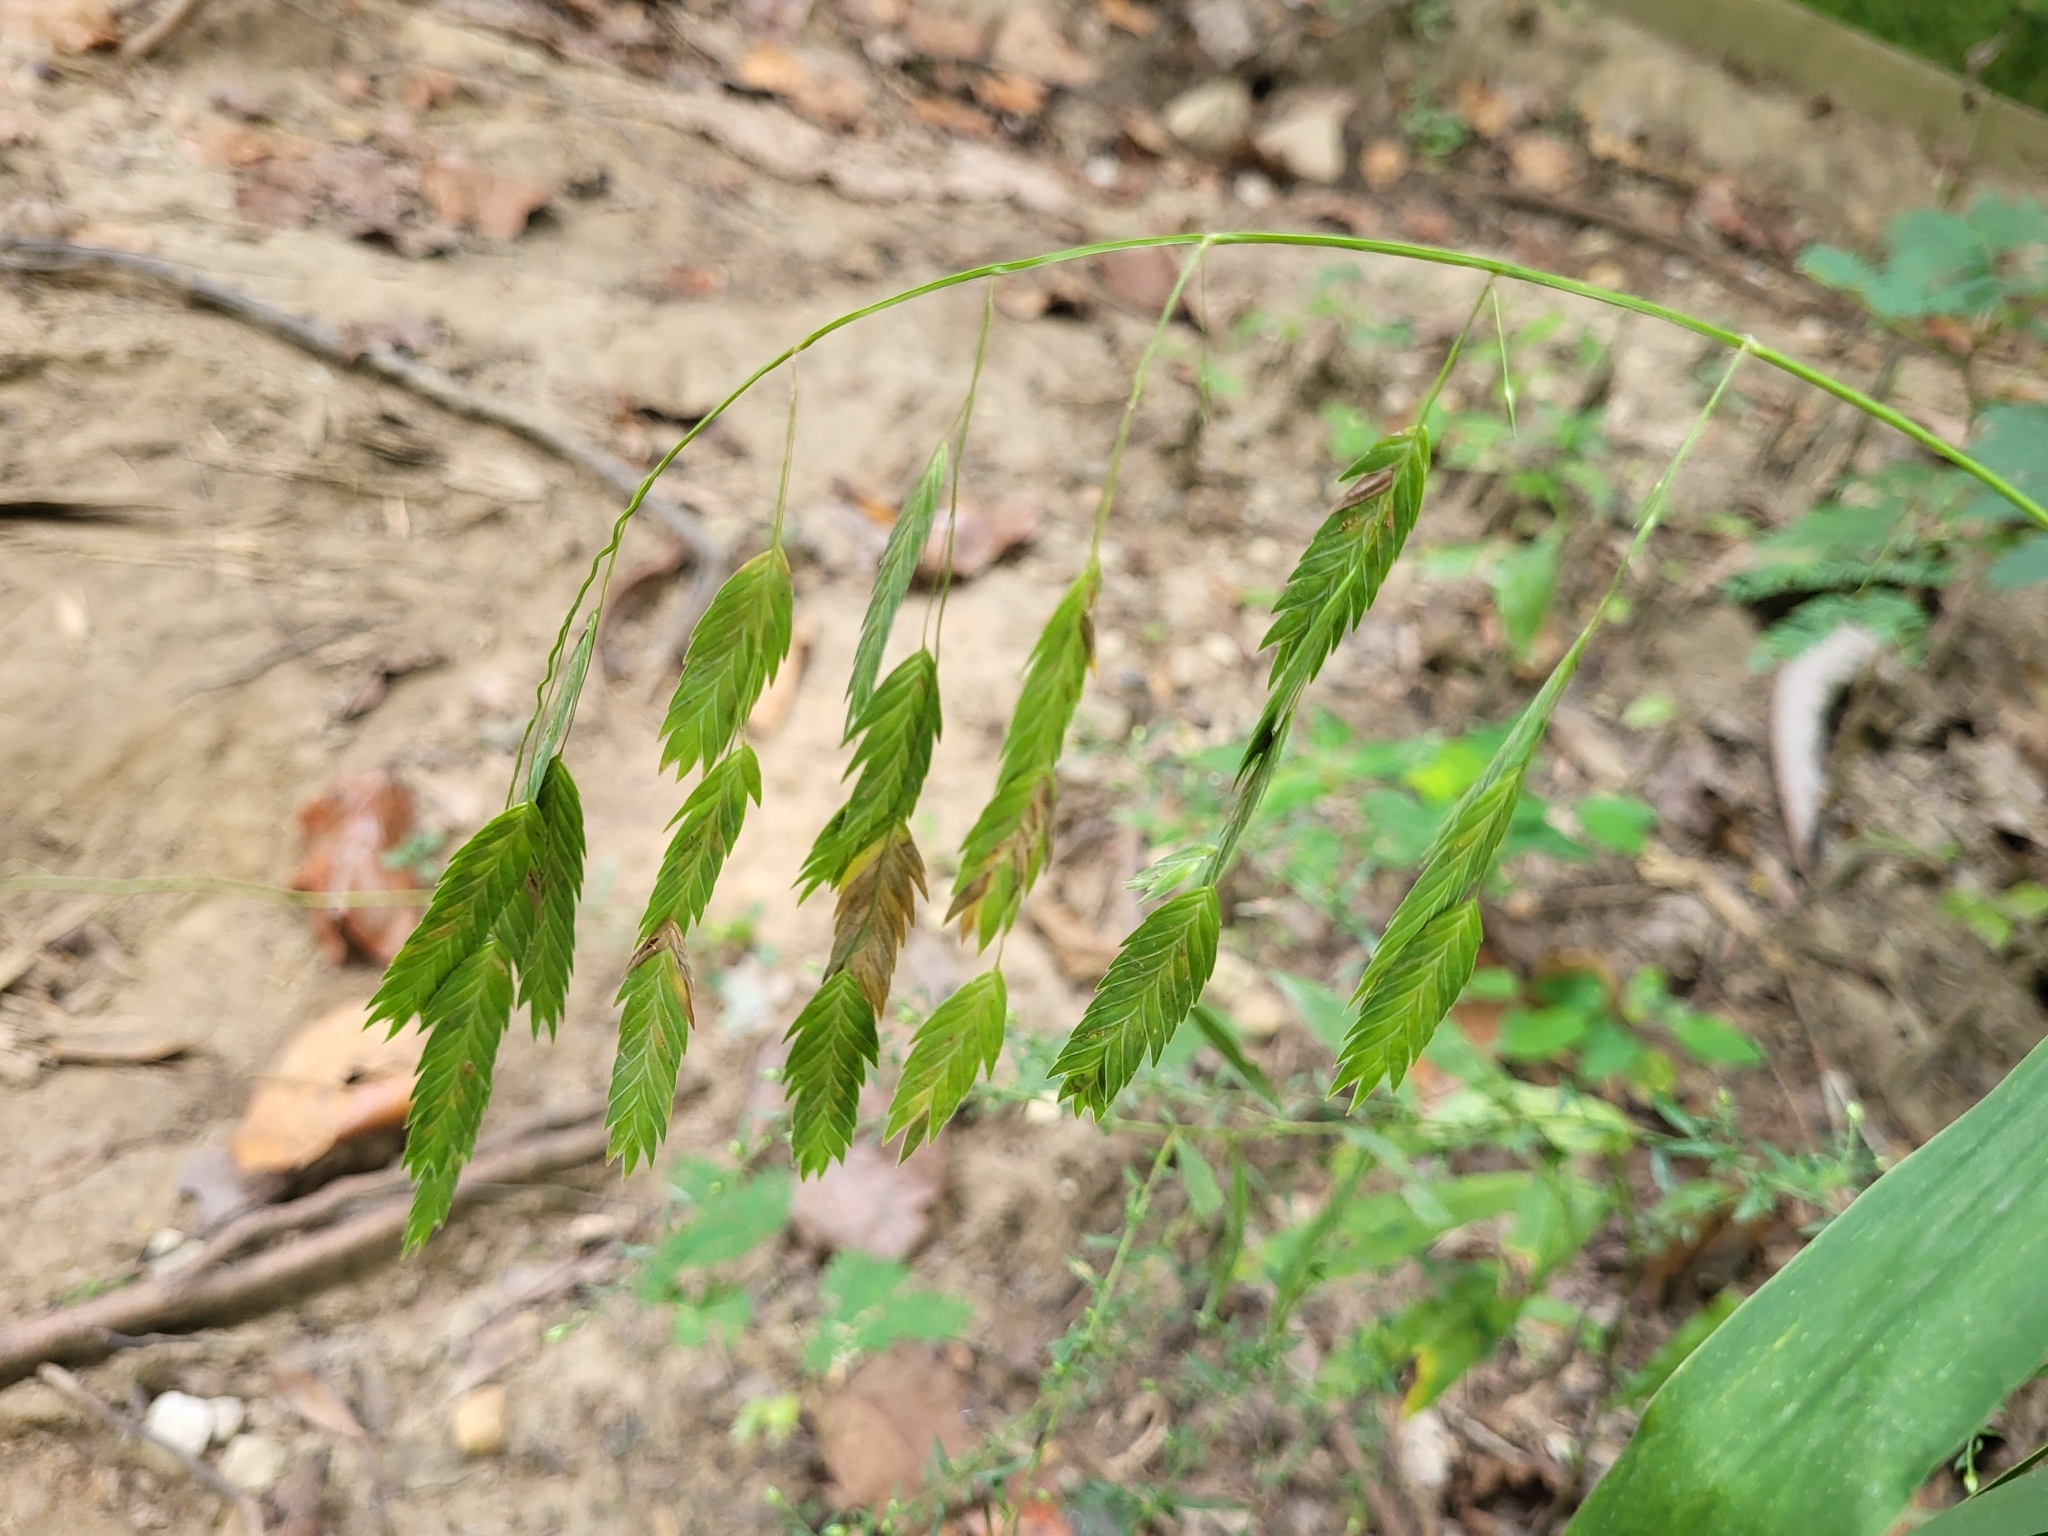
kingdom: Plantae
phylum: Tracheophyta
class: Liliopsida
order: Poales
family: Poaceae
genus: Chasmanthium
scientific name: Chasmanthium latifolium
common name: Broad-leaved chasmanthium
